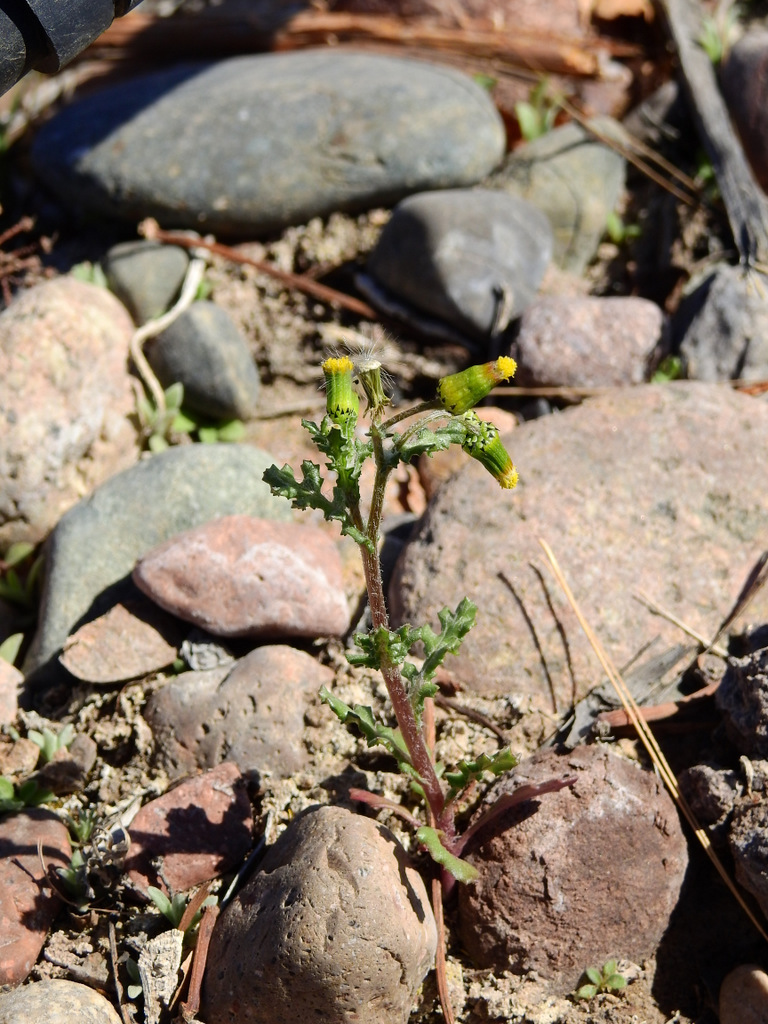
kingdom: Plantae
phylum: Tracheophyta
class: Magnoliopsida
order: Asterales
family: Asteraceae
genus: Senecio
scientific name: Senecio vulgaris
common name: Old-man-in-the-spring
